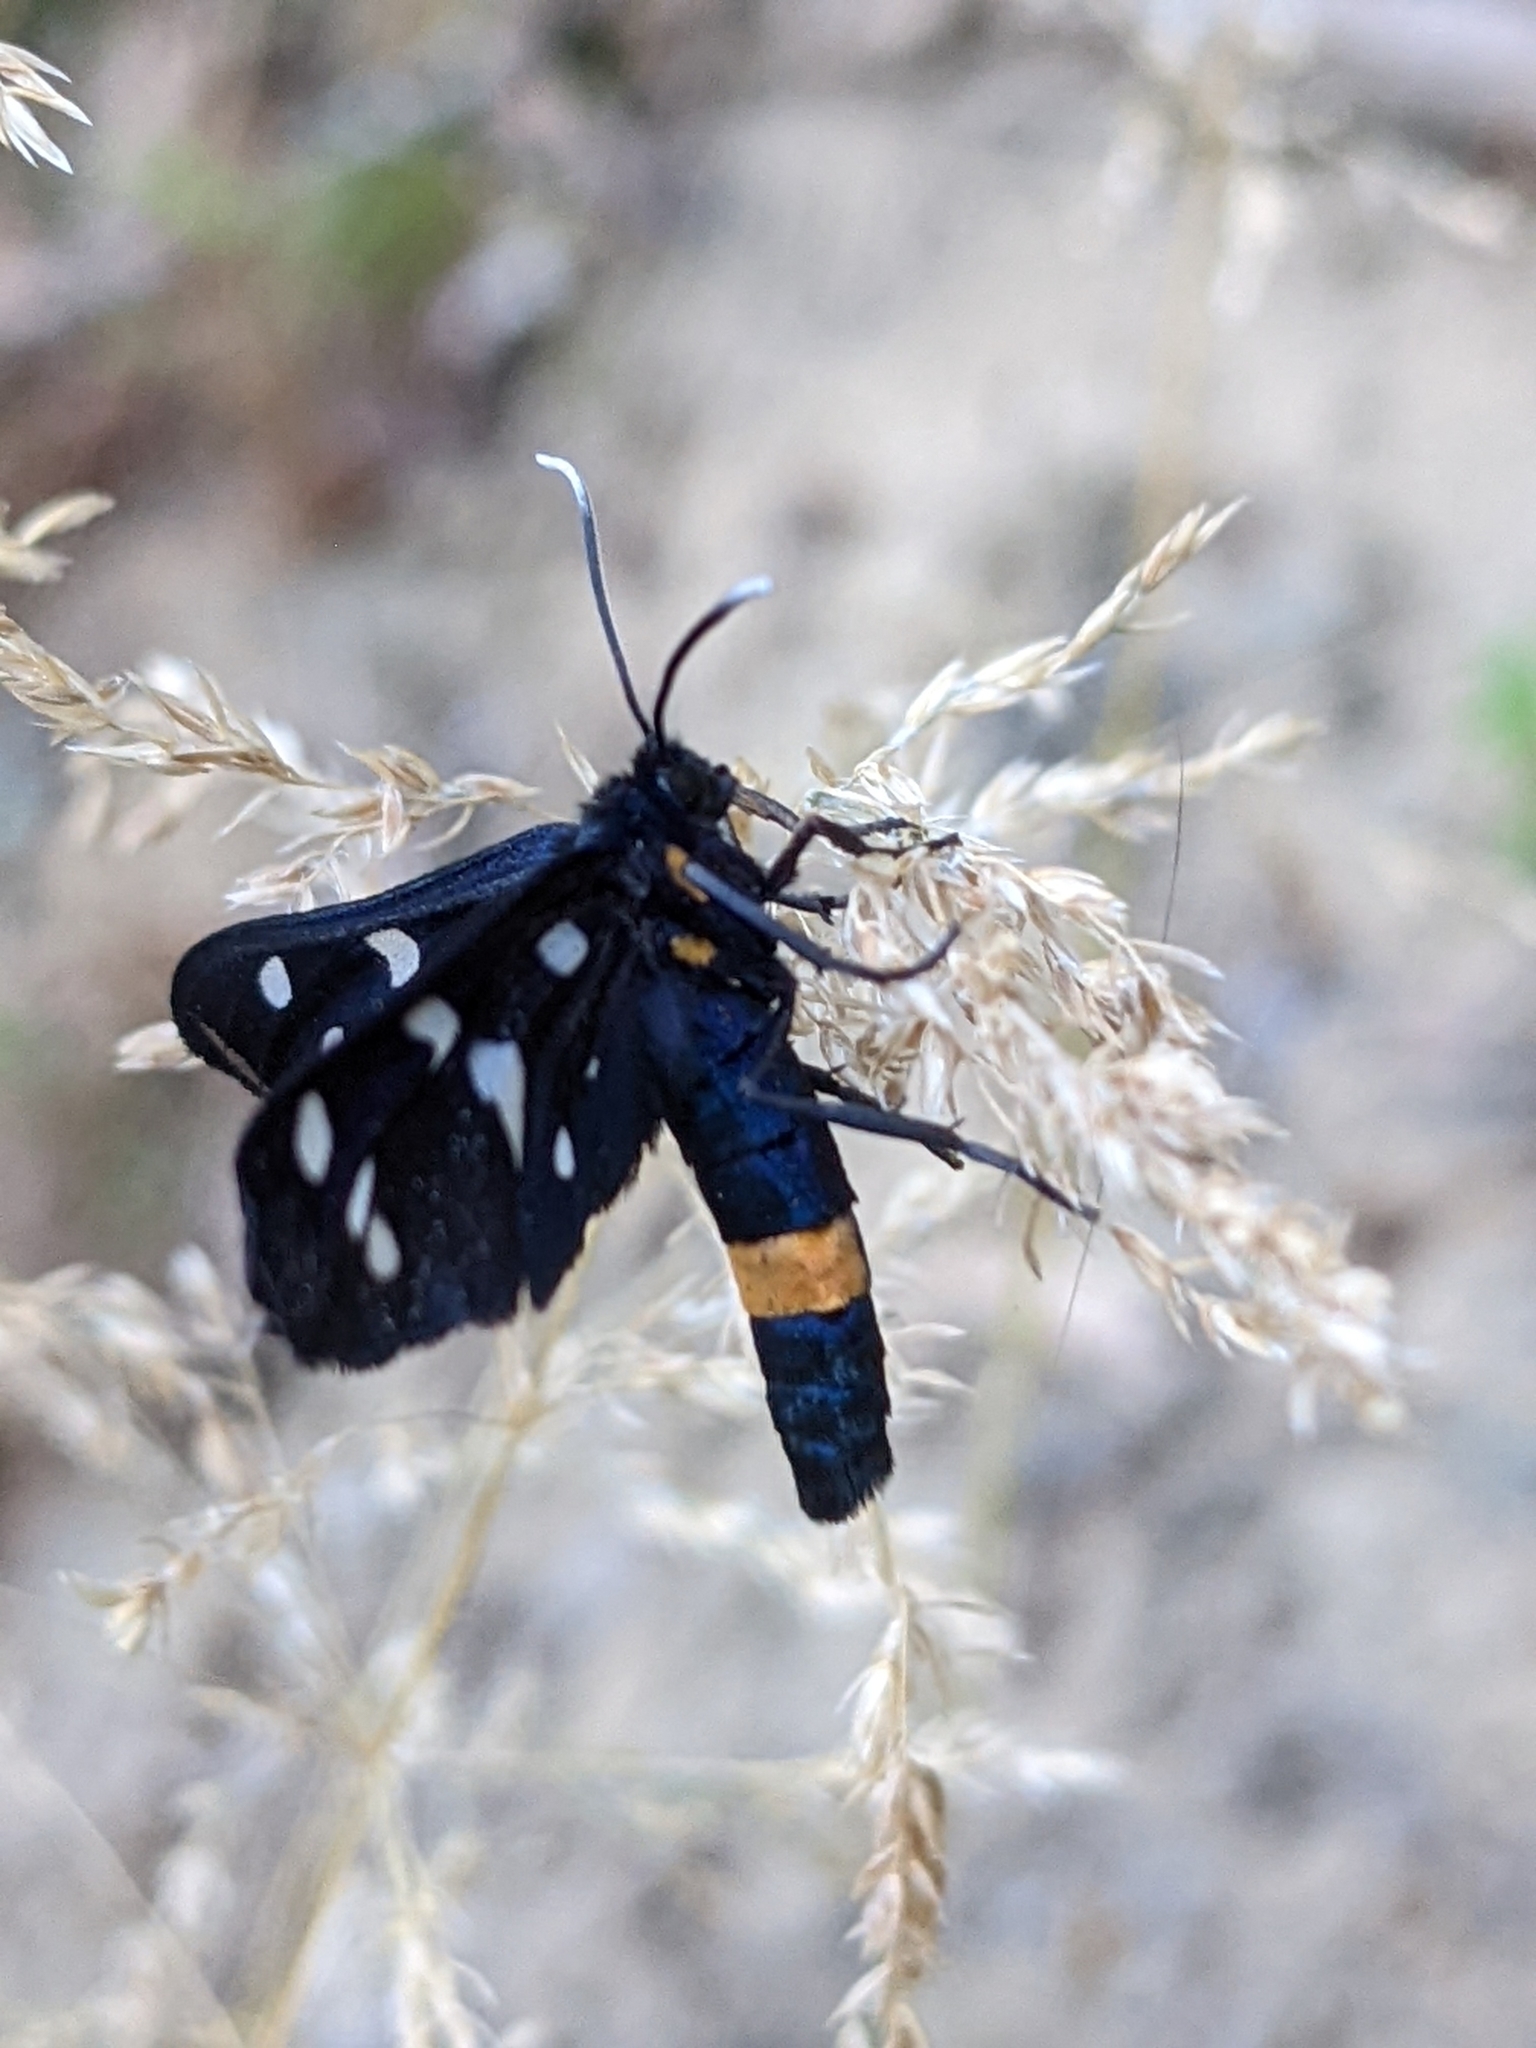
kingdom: Animalia
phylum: Arthropoda
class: Insecta
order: Lepidoptera
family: Erebidae
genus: Amata
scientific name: Amata phegea
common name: Nine-spotted
